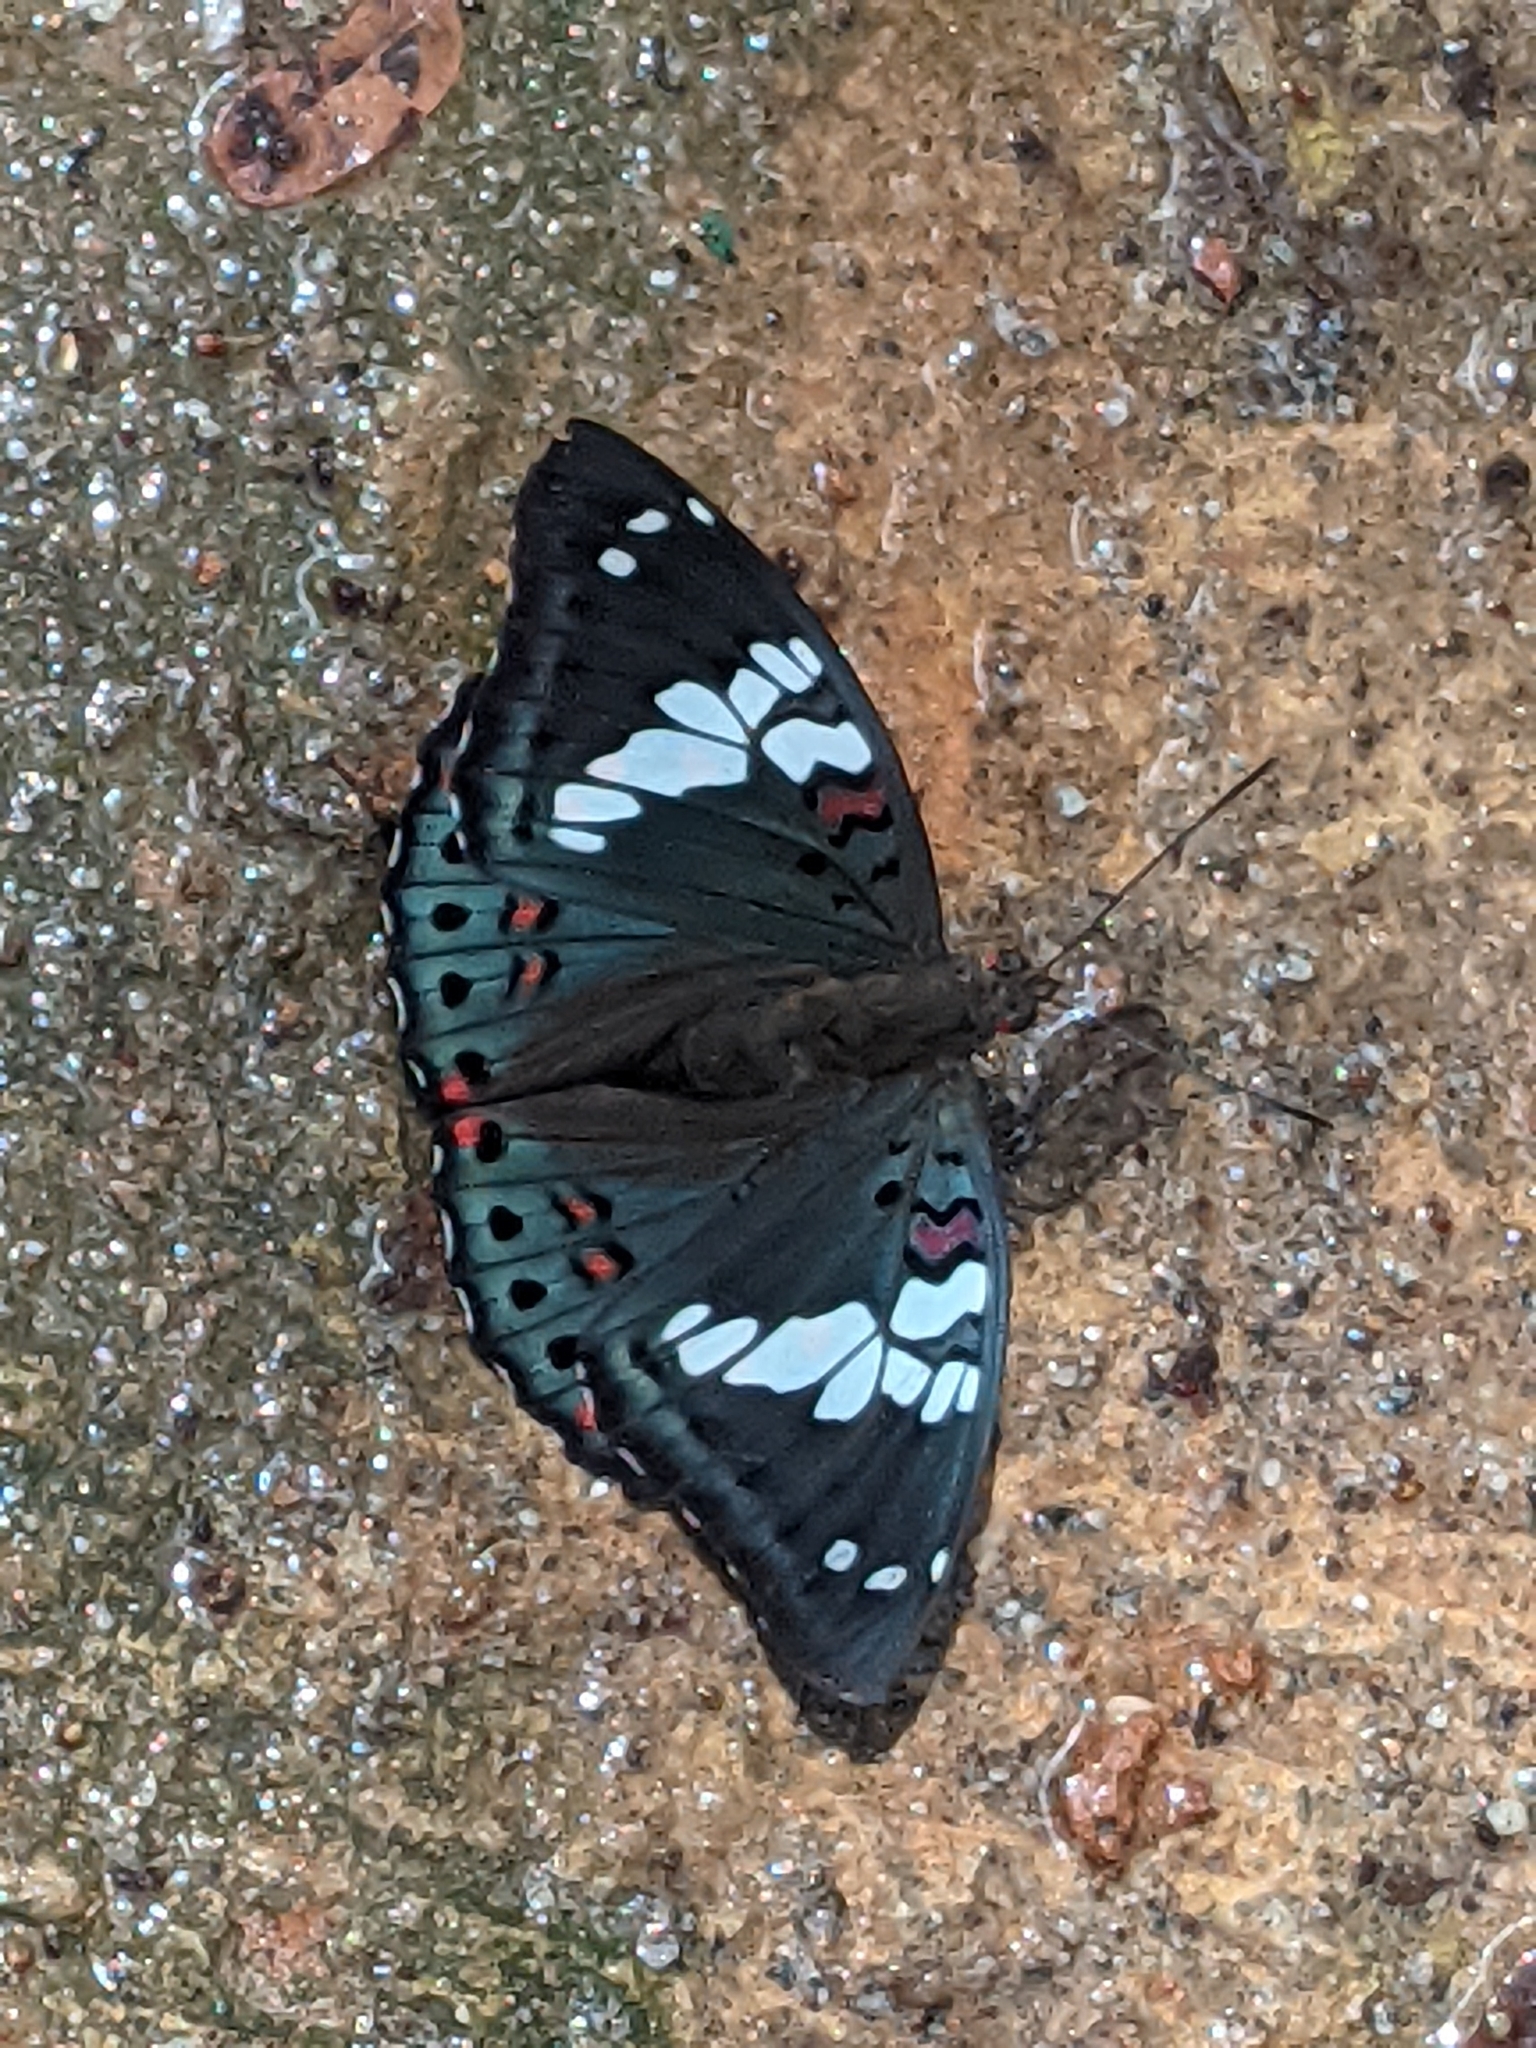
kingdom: Animalia
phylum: Arthropoda
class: Insecta
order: Lepidoptera
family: Nymphalidae
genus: Euthalia
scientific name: Euthalia lubentina
